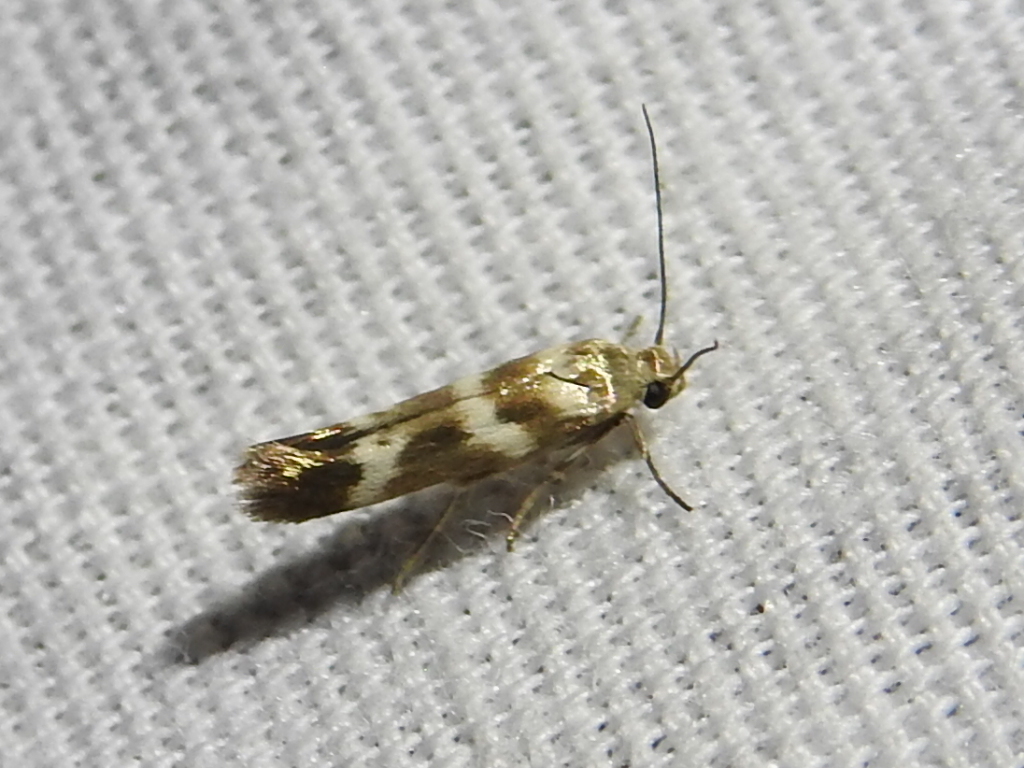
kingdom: Animalia
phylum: Arthropoda
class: Insecta
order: Lepidoptera
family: Scythrididae
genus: Scythris
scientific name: Scythris trivinctella
